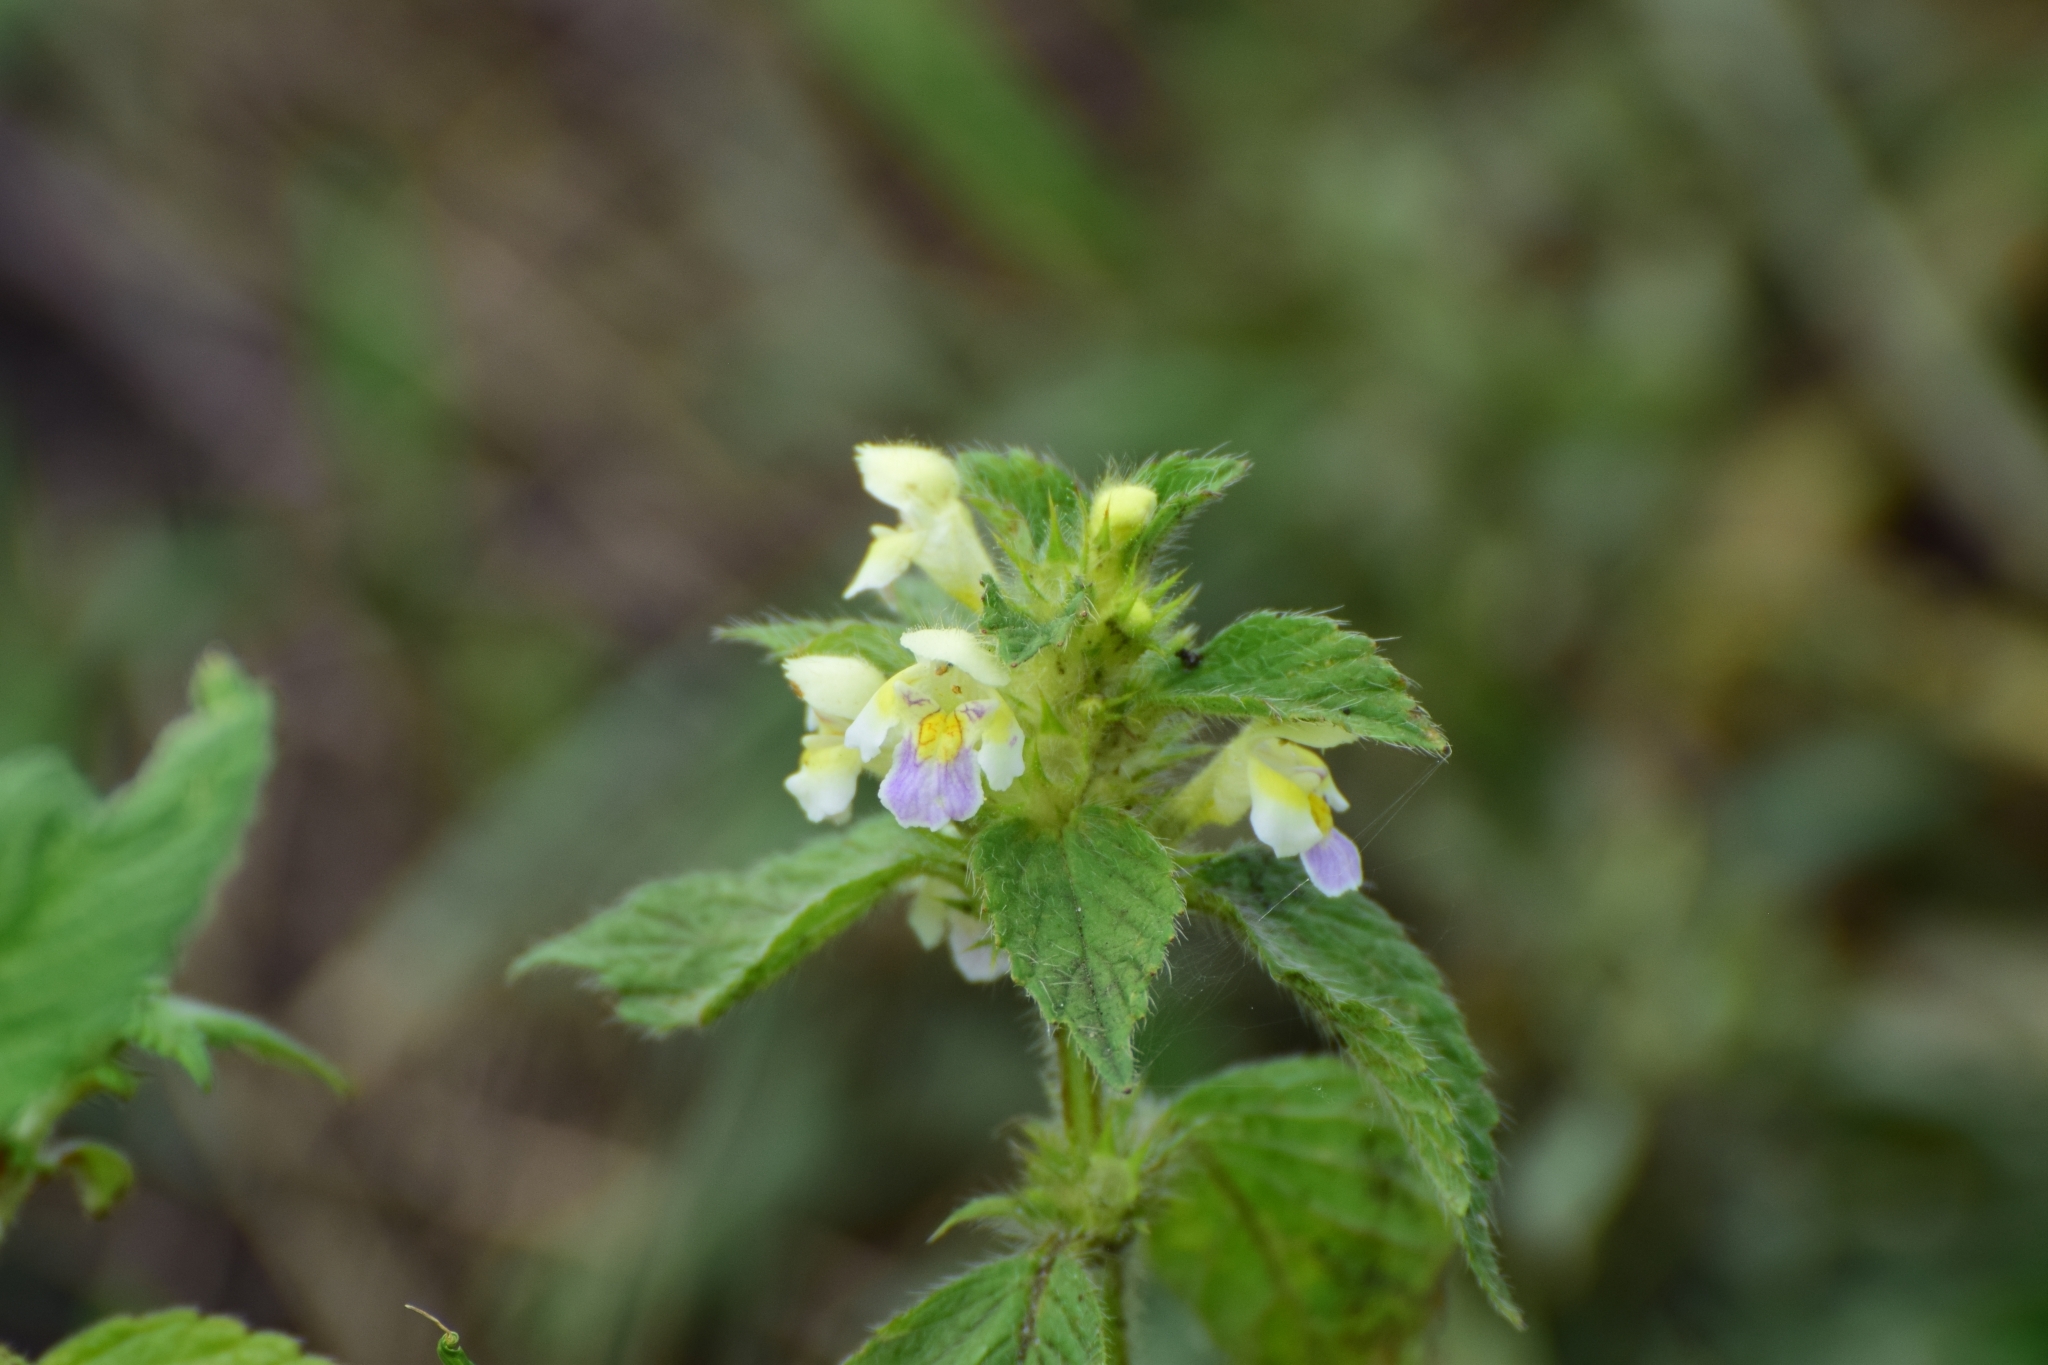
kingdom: Plantae
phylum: Tracheophyta
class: Magnoliopsida
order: Lamiales
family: Lamiaceae
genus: Galeopsis
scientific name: Galeopsis speciosa
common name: Large-flowered hemp-nettle
